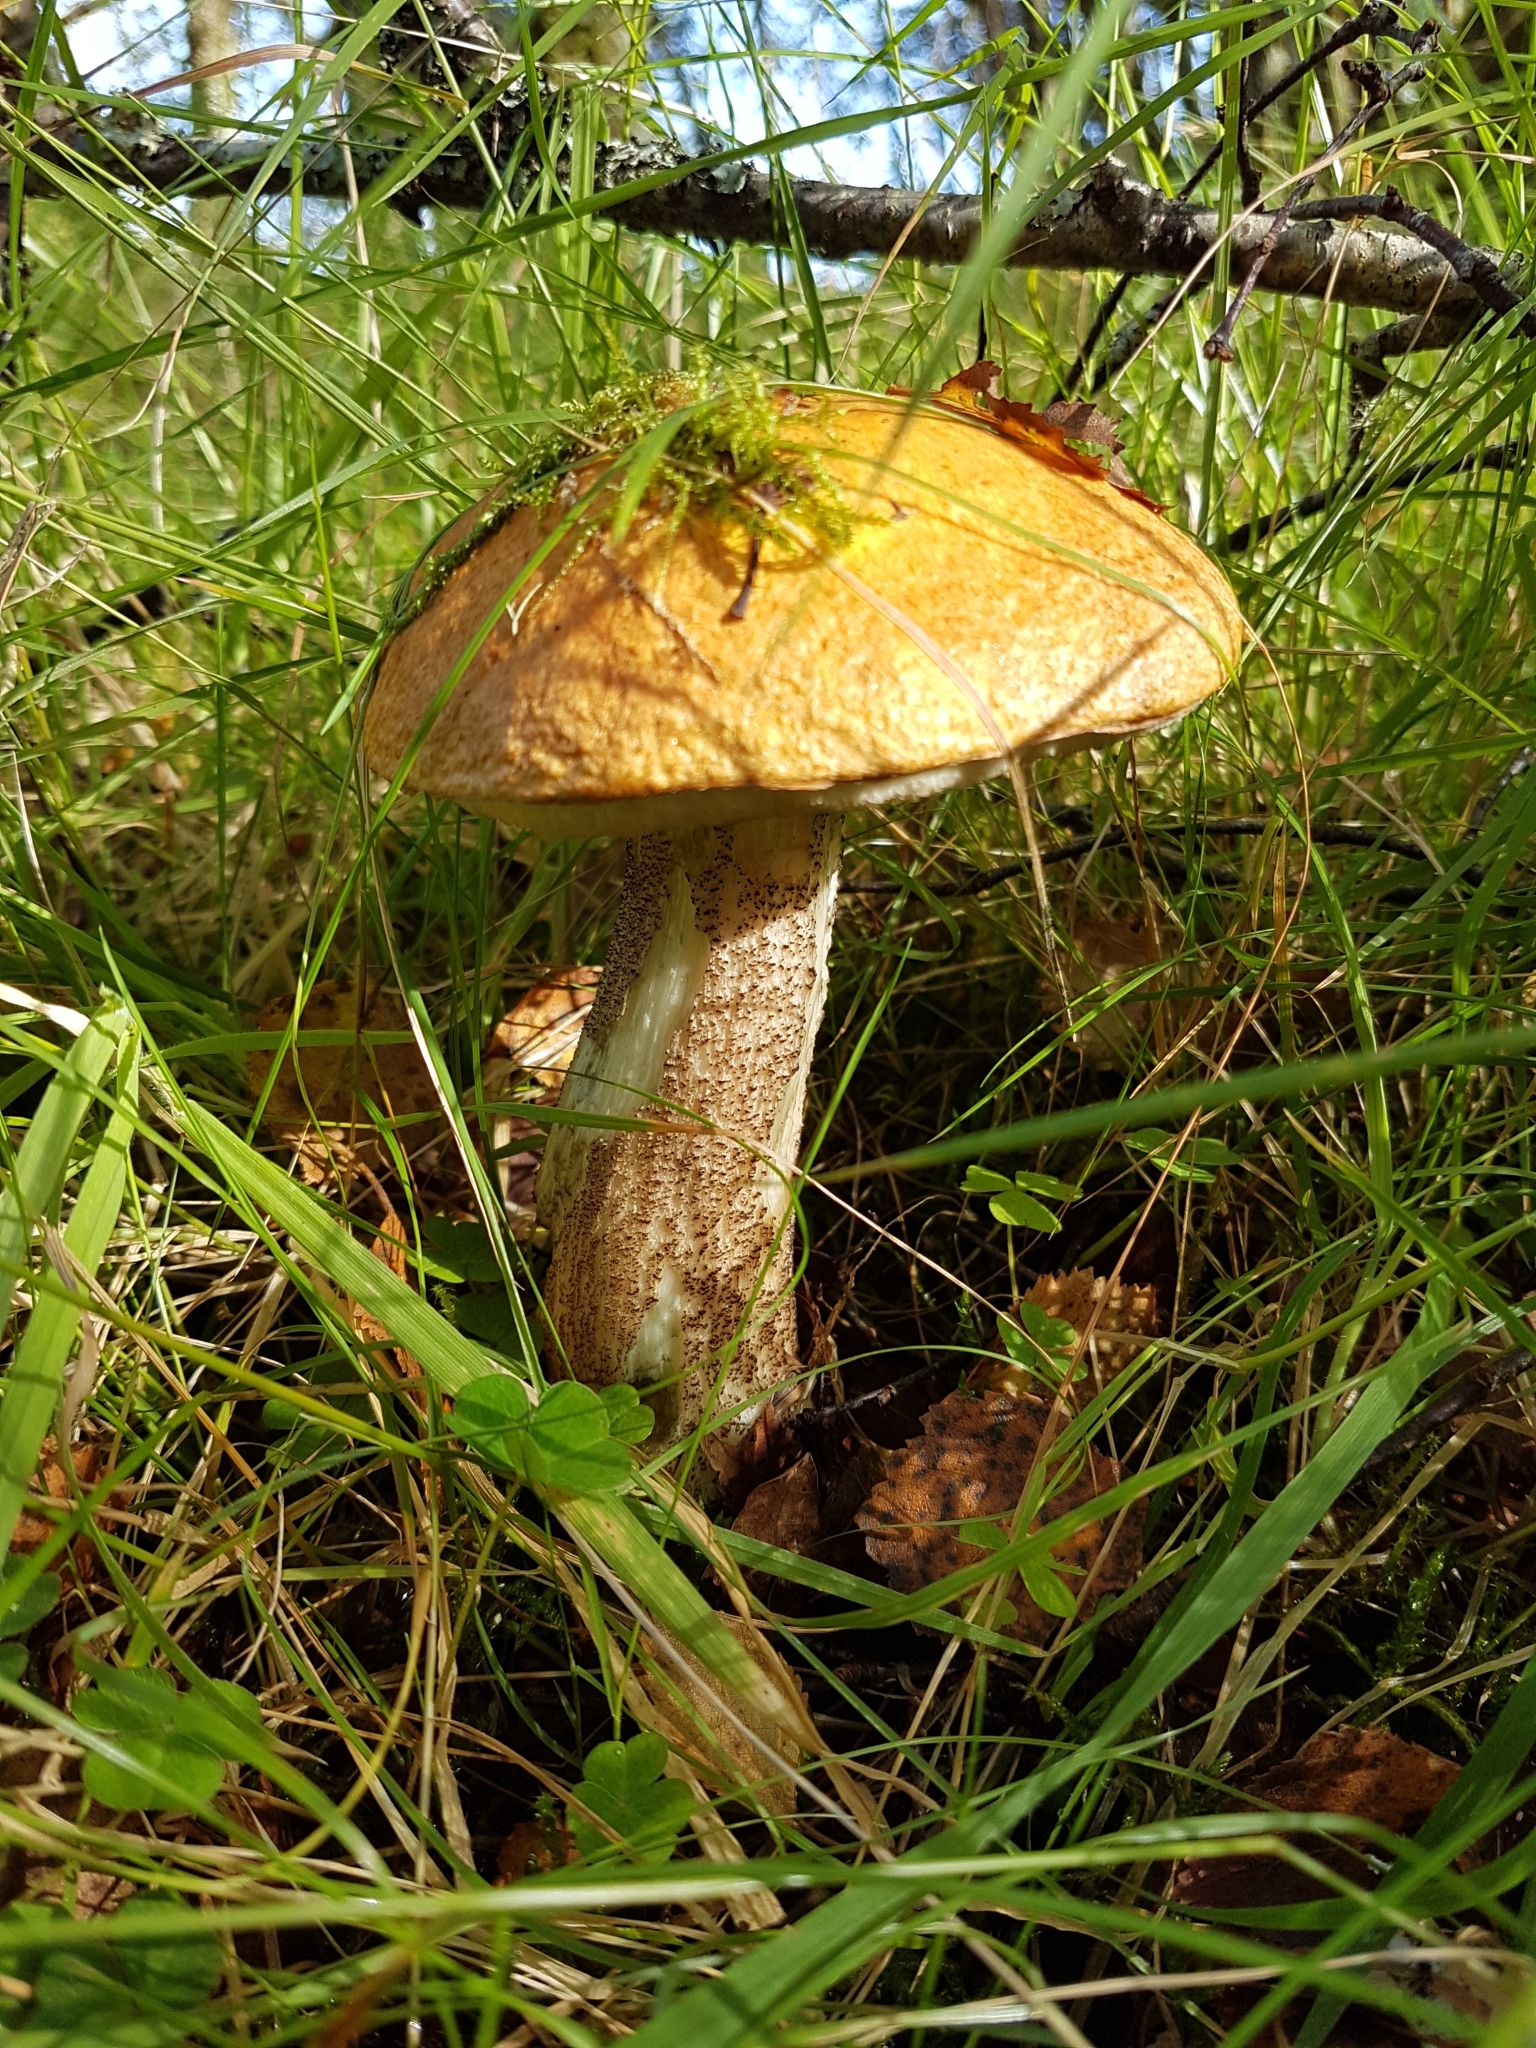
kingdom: Fungi
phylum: Basidiomycota
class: Agaricomycetes
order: Boletales
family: Boletaceae
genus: Leccinum
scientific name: Leccinum aurantiacum
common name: Orange bolete
